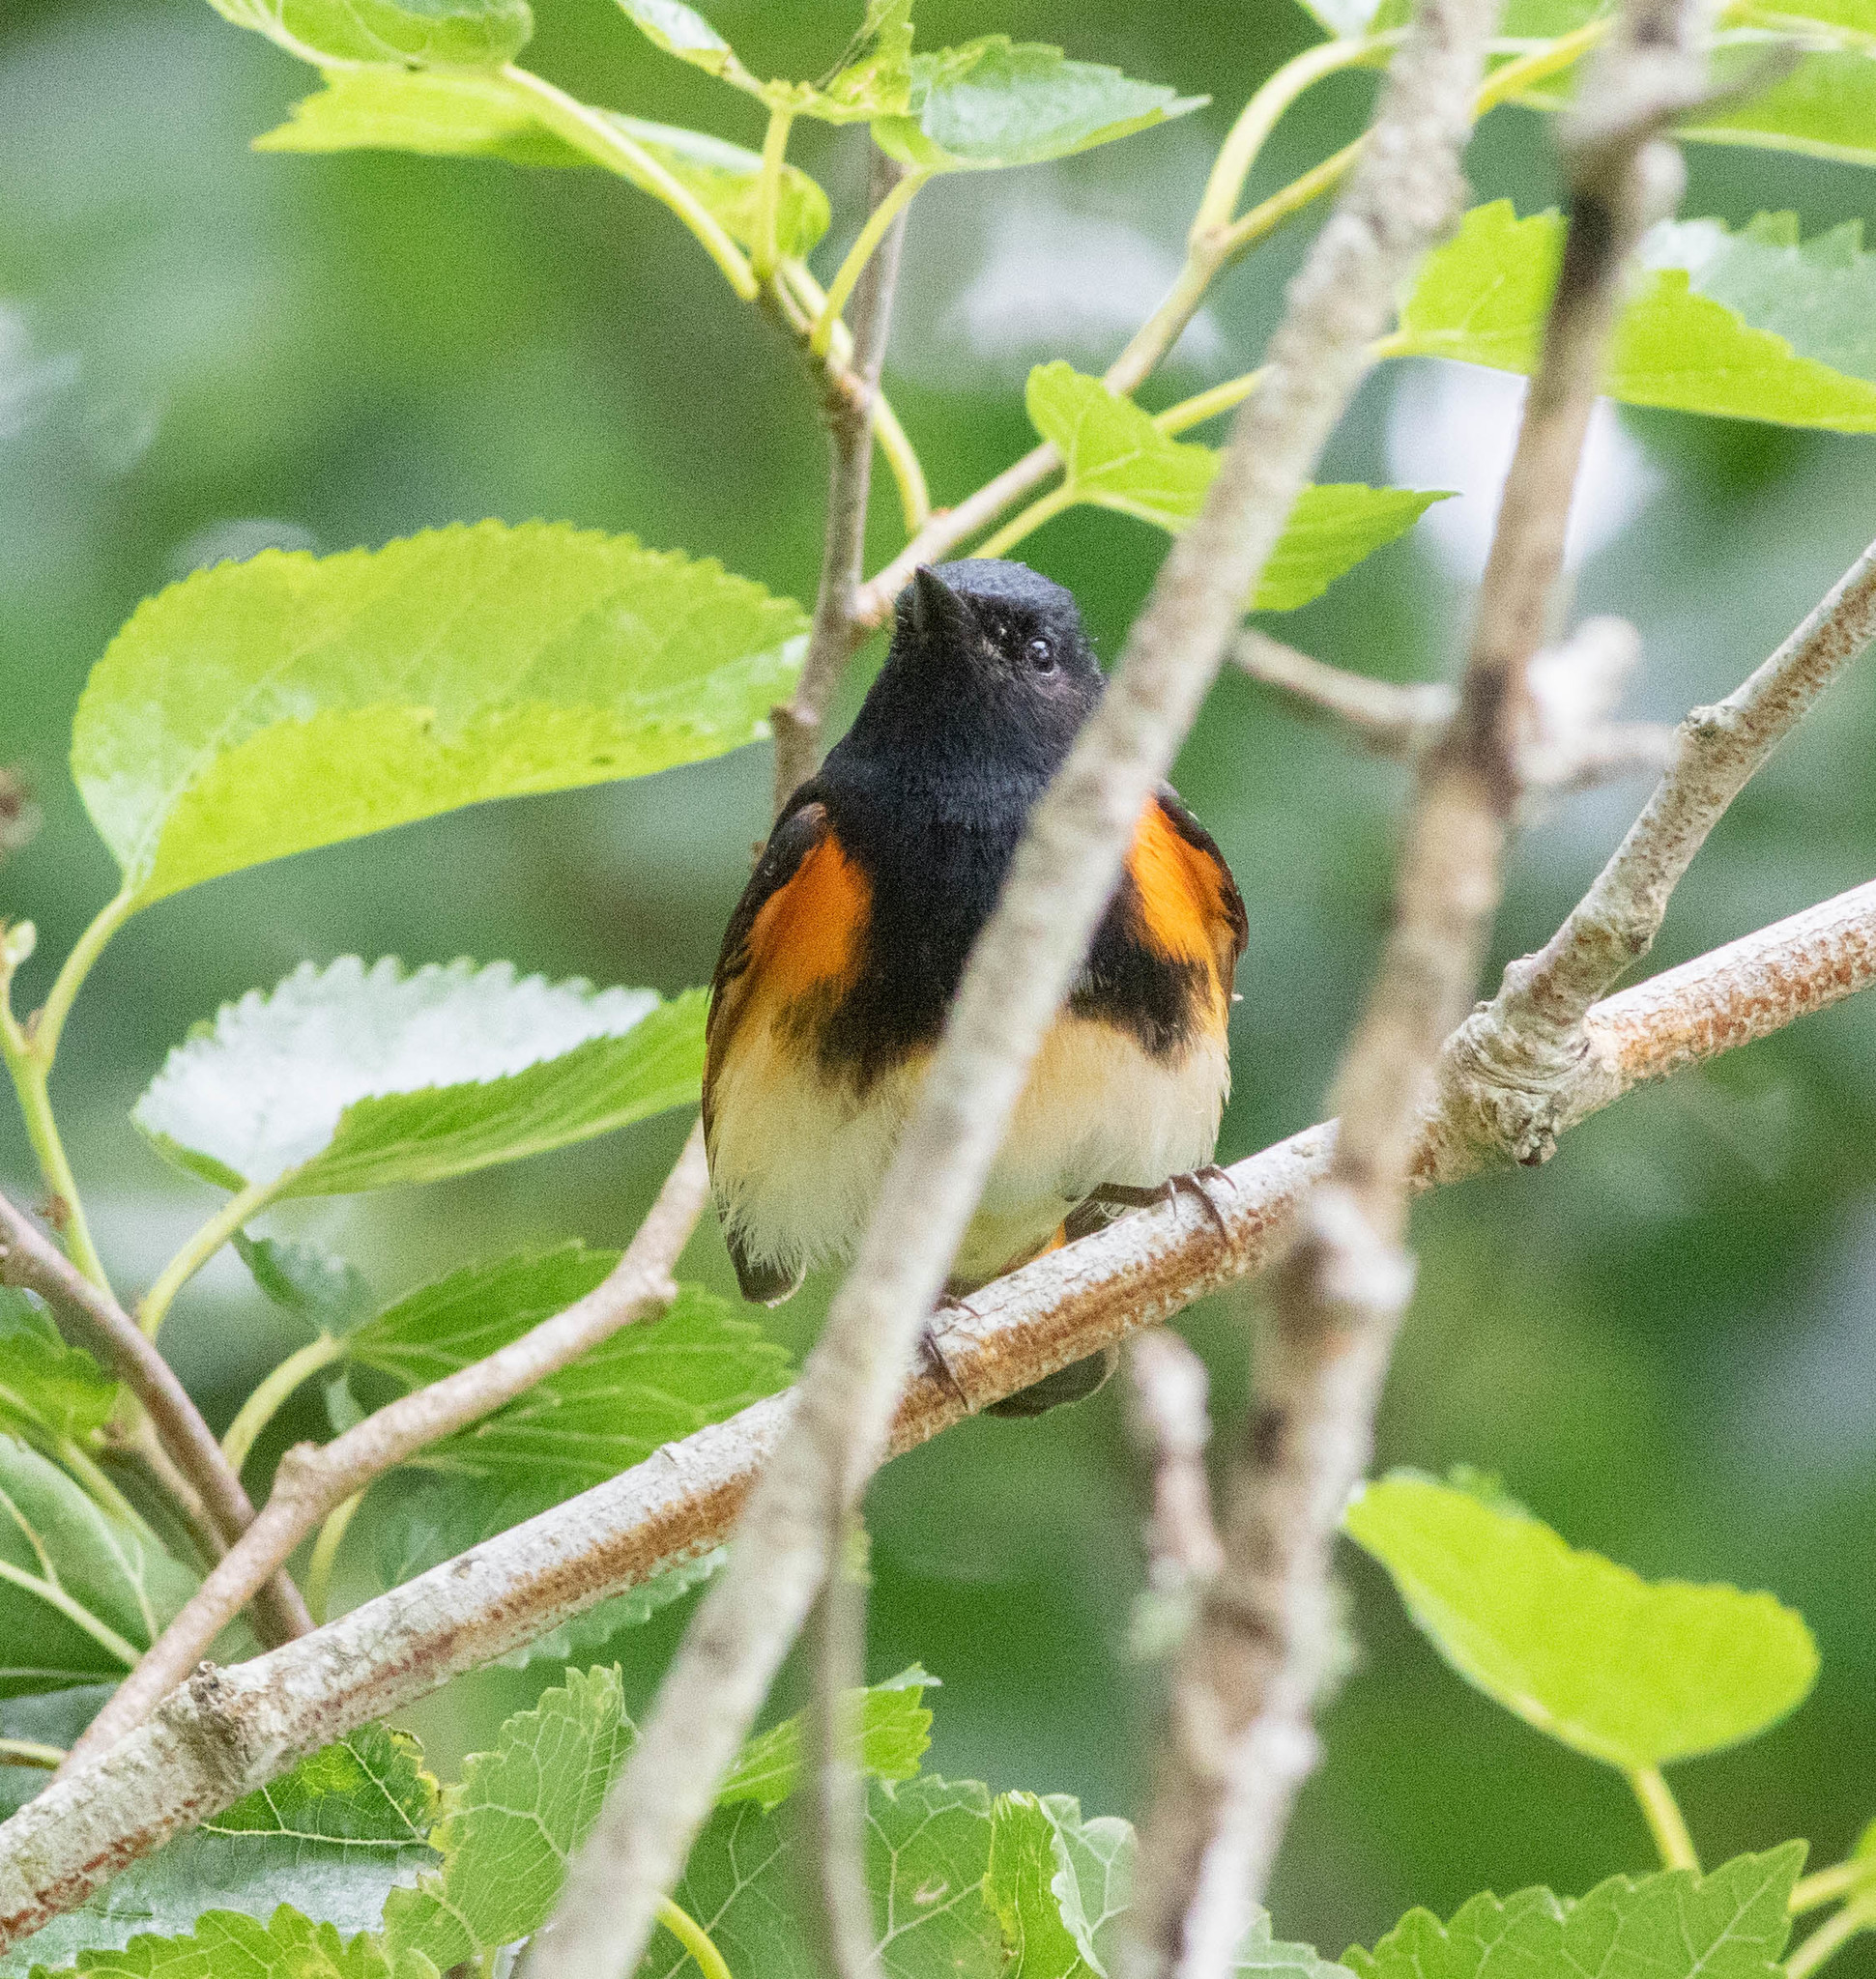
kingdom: Animalia
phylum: Chordata
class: Aves
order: Passeriformes
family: Parulidae
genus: Setophaga
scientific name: Setophaga ruticilla
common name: American redstart
